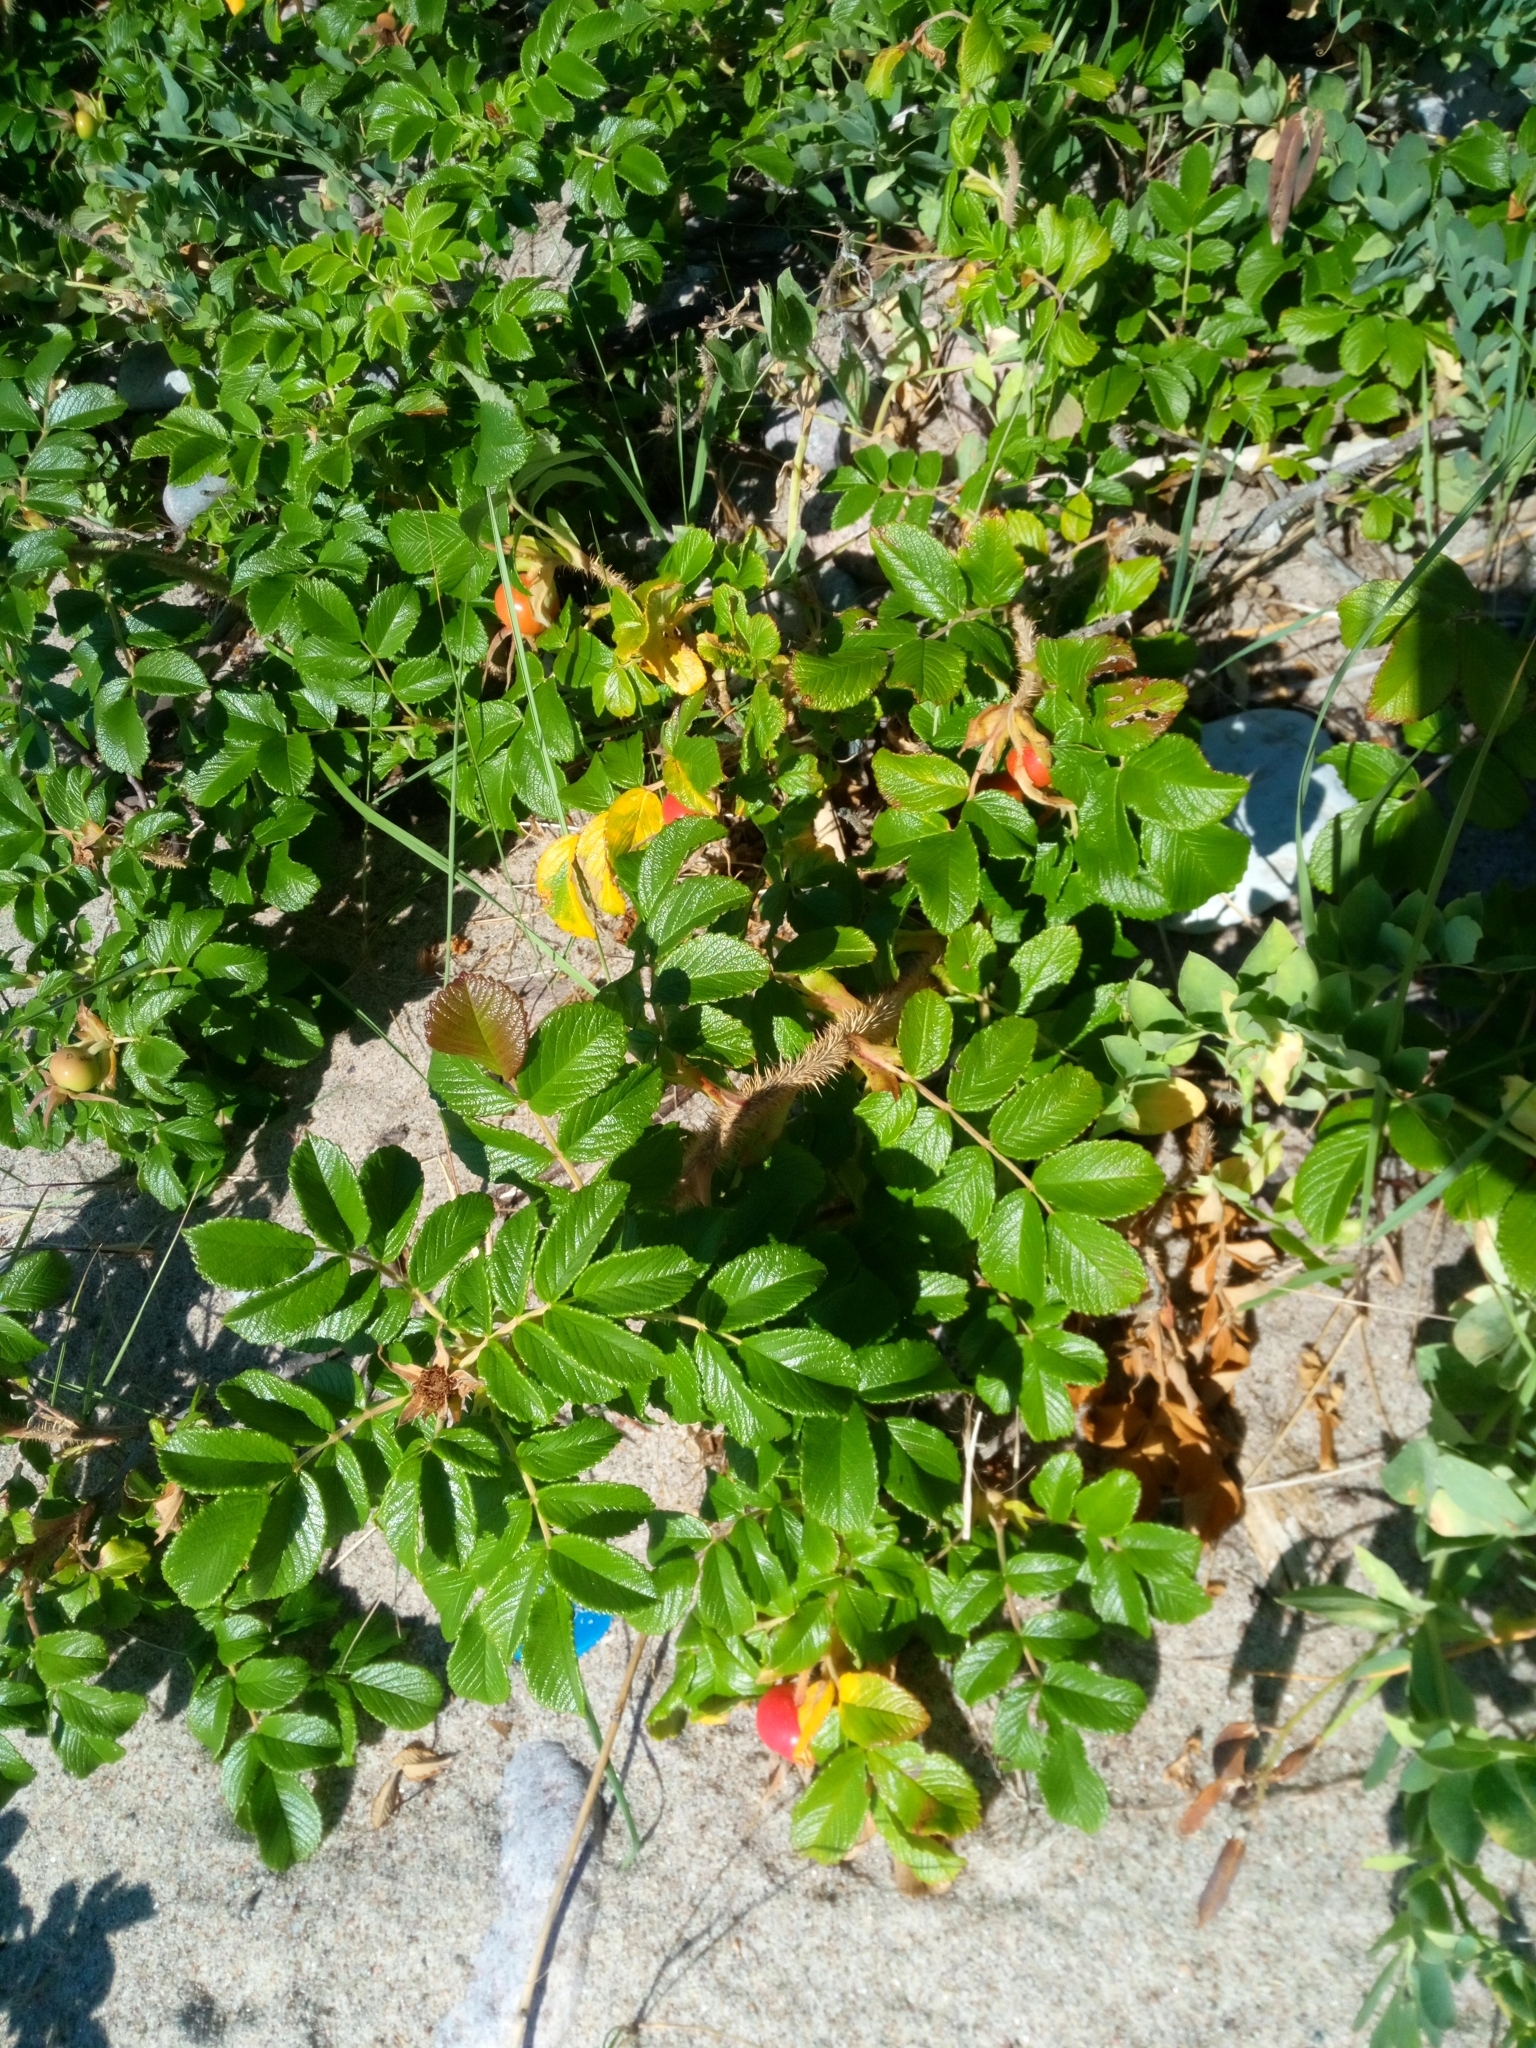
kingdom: Plantae
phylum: Tracheophyta
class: Magnoliopsida
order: Rosales
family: Rosaceae
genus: Rosa
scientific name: Rosa rugosa
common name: Japanese rose
